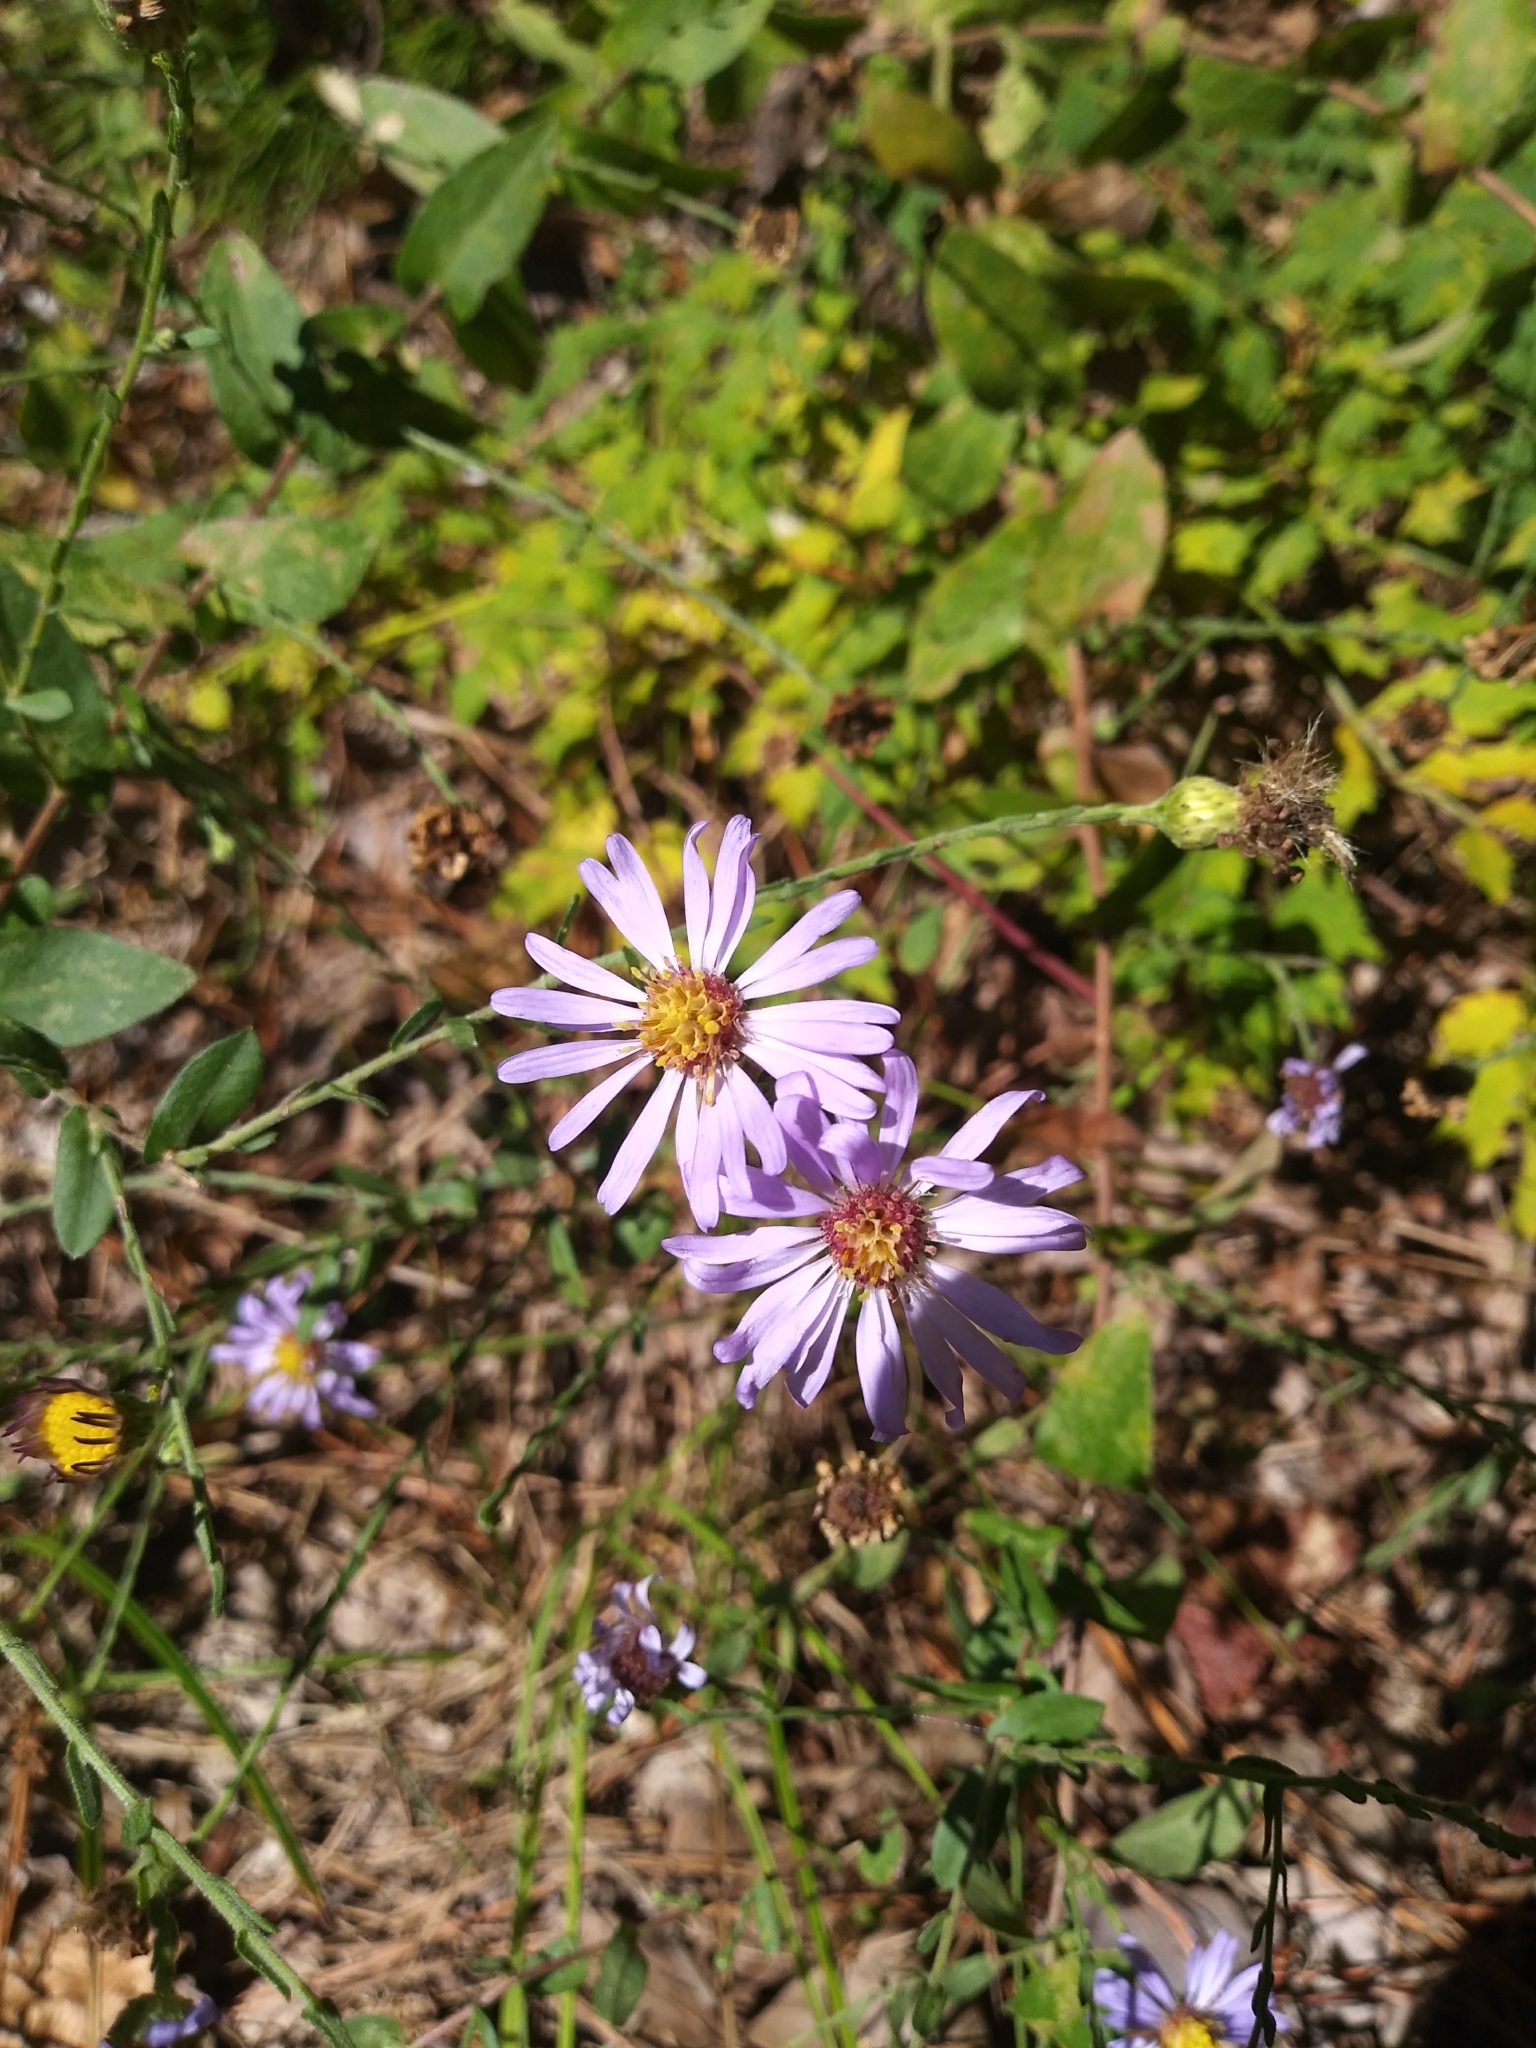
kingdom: Plantae
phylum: Tracheophyta
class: Magnoliopsida
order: Asterales
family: Asteraceae
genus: Symphyotrichum
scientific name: Symphyotrichum patens
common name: Late purple aster
